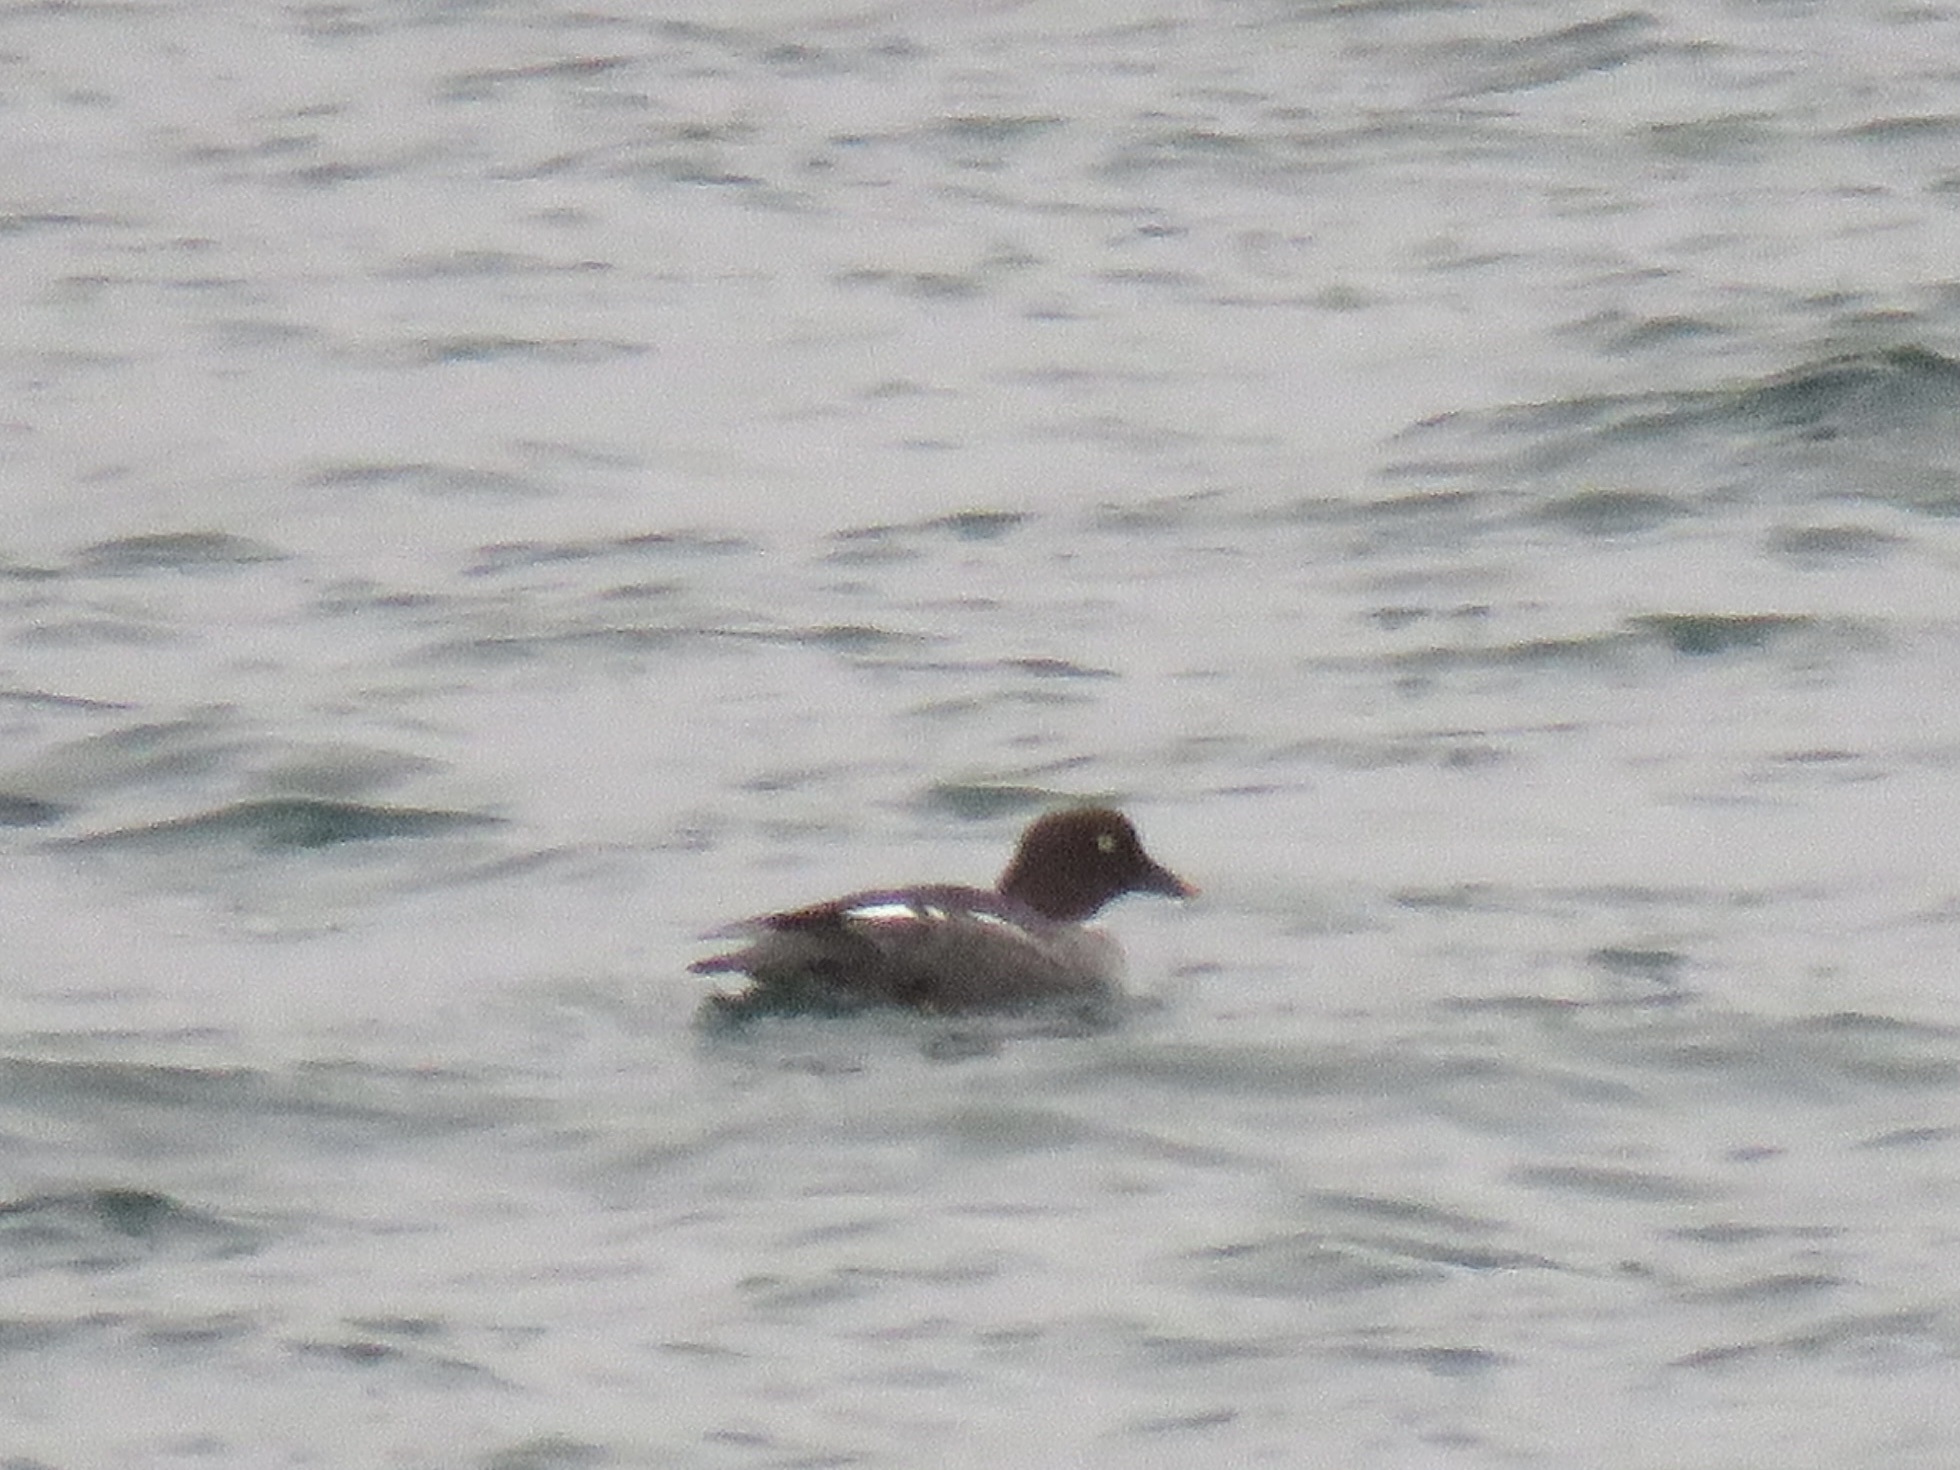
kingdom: Animalia
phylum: Chordata
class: Aves
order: Anseriformes
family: Anatidae
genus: Bucephala
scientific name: Bucephala clangula
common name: Common goldeneye
